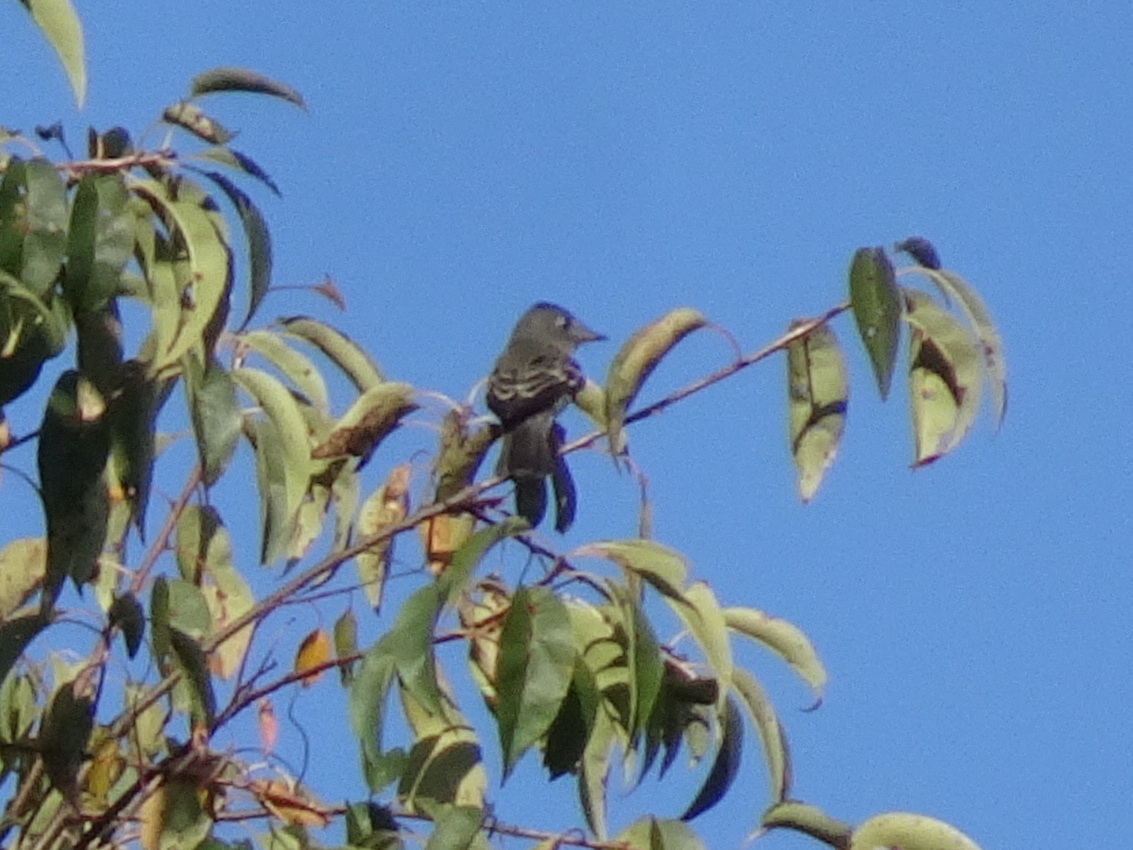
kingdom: Animalia
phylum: Chordata
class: Aves
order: Passeriformes
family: Tyrannidae
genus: Contopus
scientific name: Contopus virens
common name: Eastern wood-pewee
